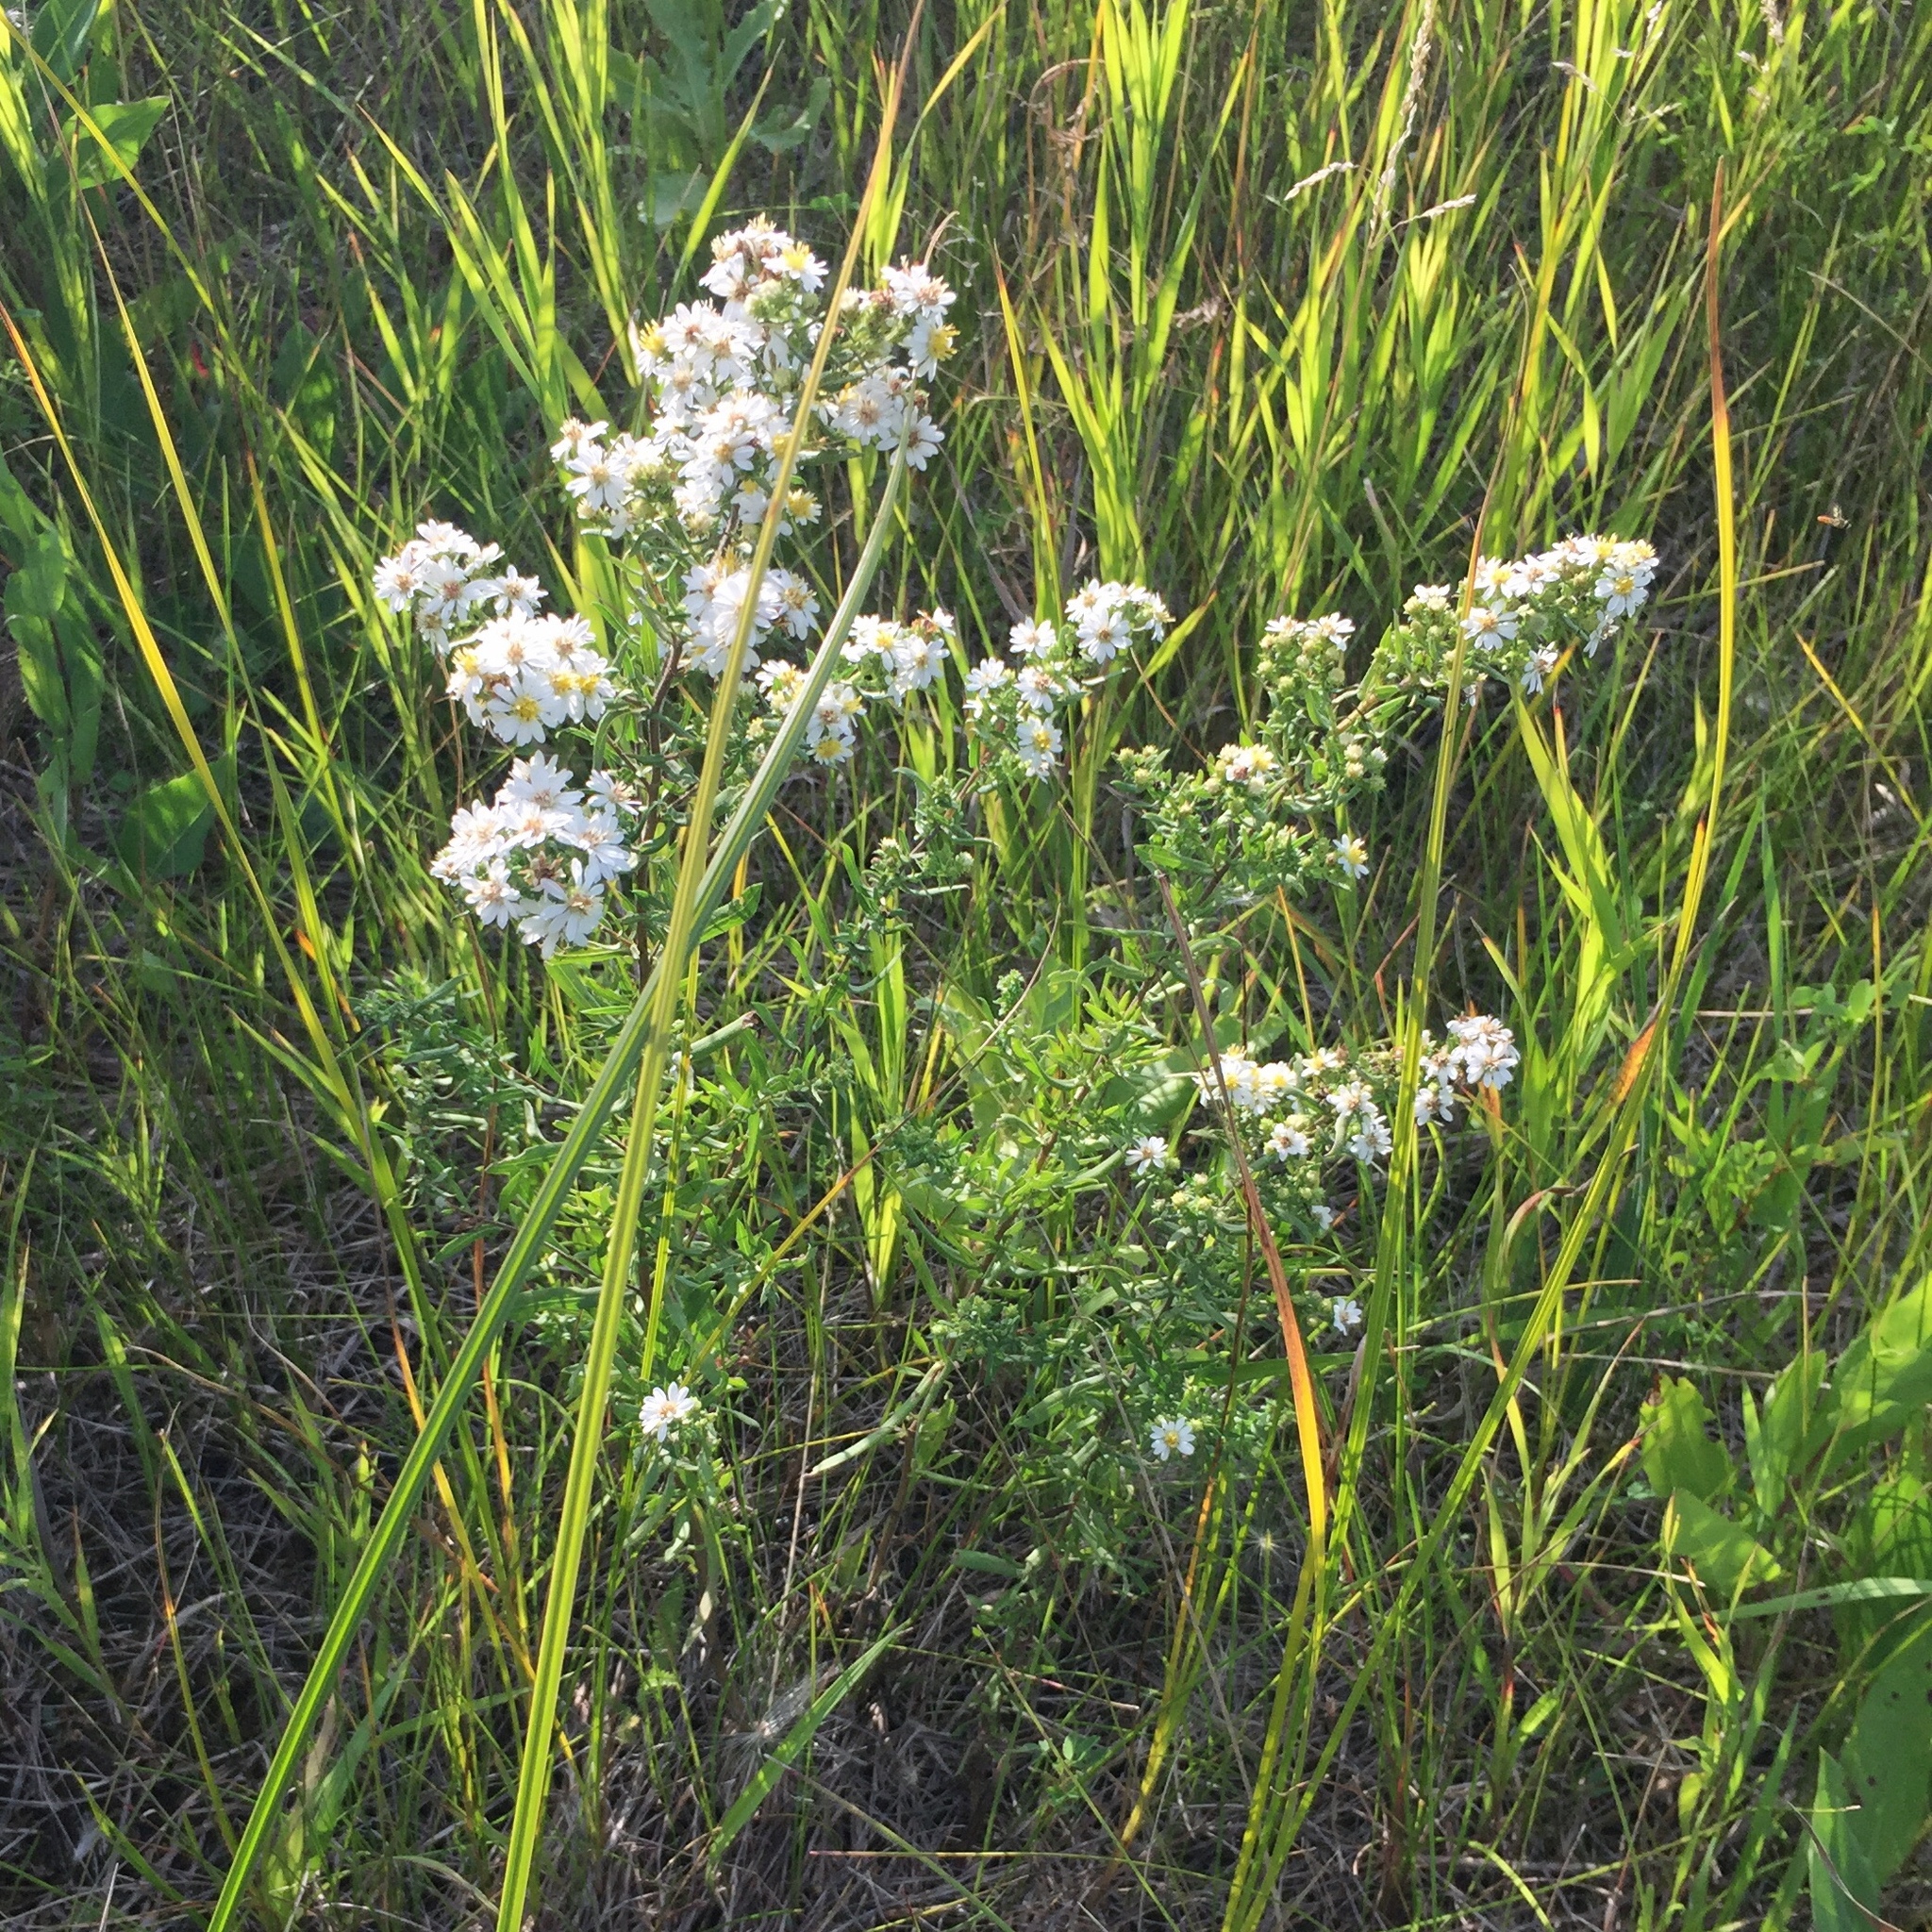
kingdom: Plantae
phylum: Tracheophyta
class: Magnoliopsida
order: Asterales
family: Asteraceae
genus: Symphyotrichum
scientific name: Symphyotrichum ericoides
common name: Heath aster
